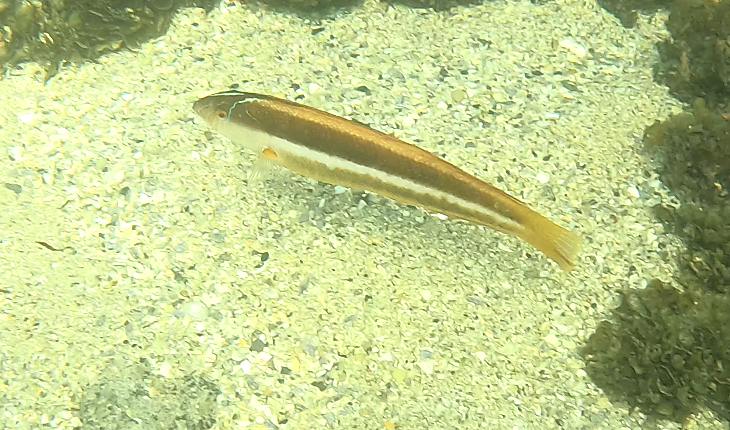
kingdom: Animalia
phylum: Chordata
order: Perciformes
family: Labridae
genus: Ophthalmolepis
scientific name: Ophthalmolepis lineolata
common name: Maori wrasse
